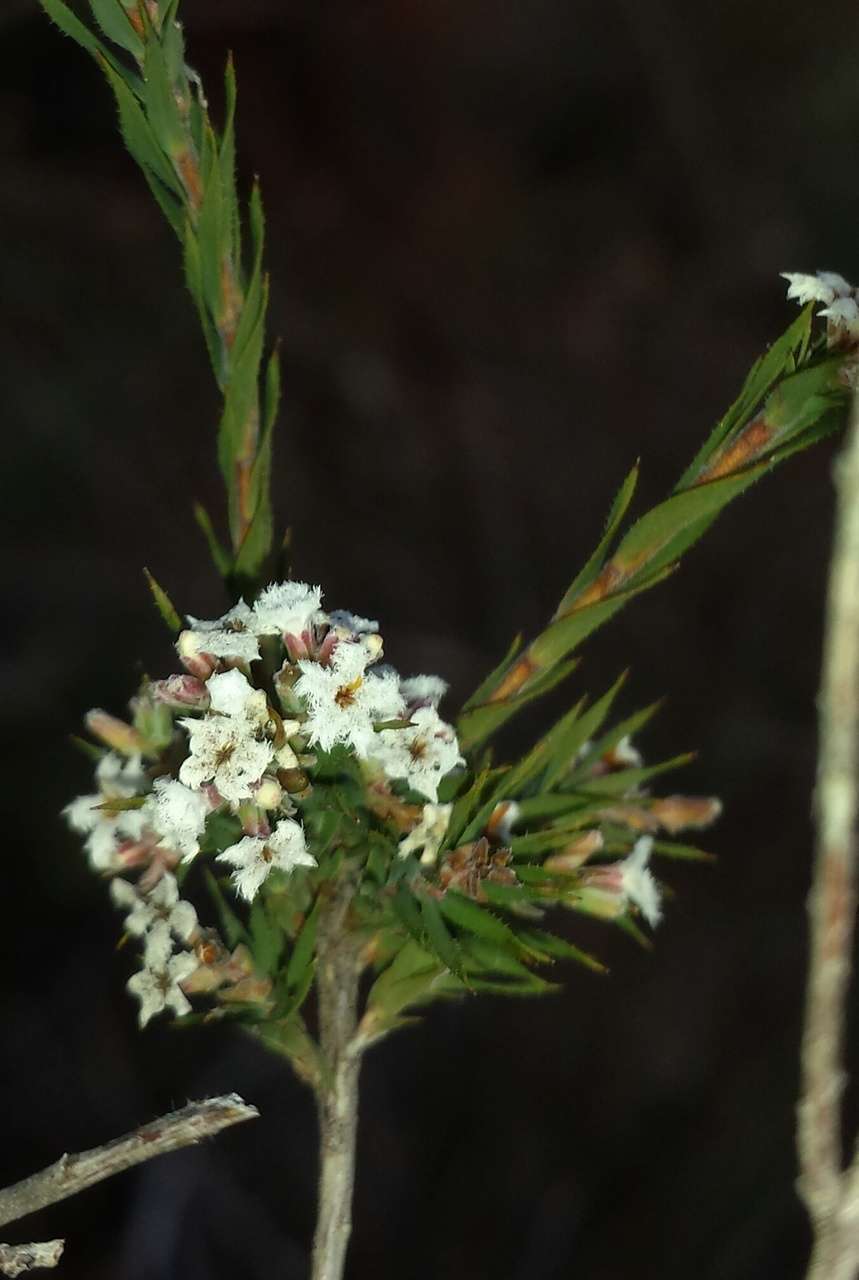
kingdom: Plantae
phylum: Tracheophyta
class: Magnoliopsida
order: Ericales
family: Ericaceae
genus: Leucopogon
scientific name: Leucopogon glacialis
